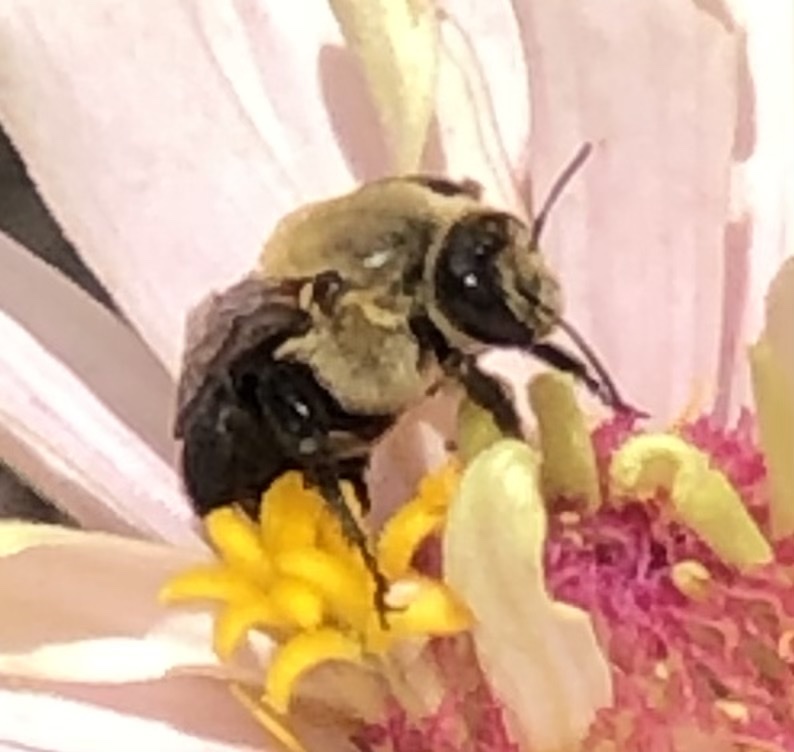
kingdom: Animalia
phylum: Arthropoda
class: Insecta
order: Hymenoptera
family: Apidae
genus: Ptilothrix
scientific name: Ptilothrix bombiformis
